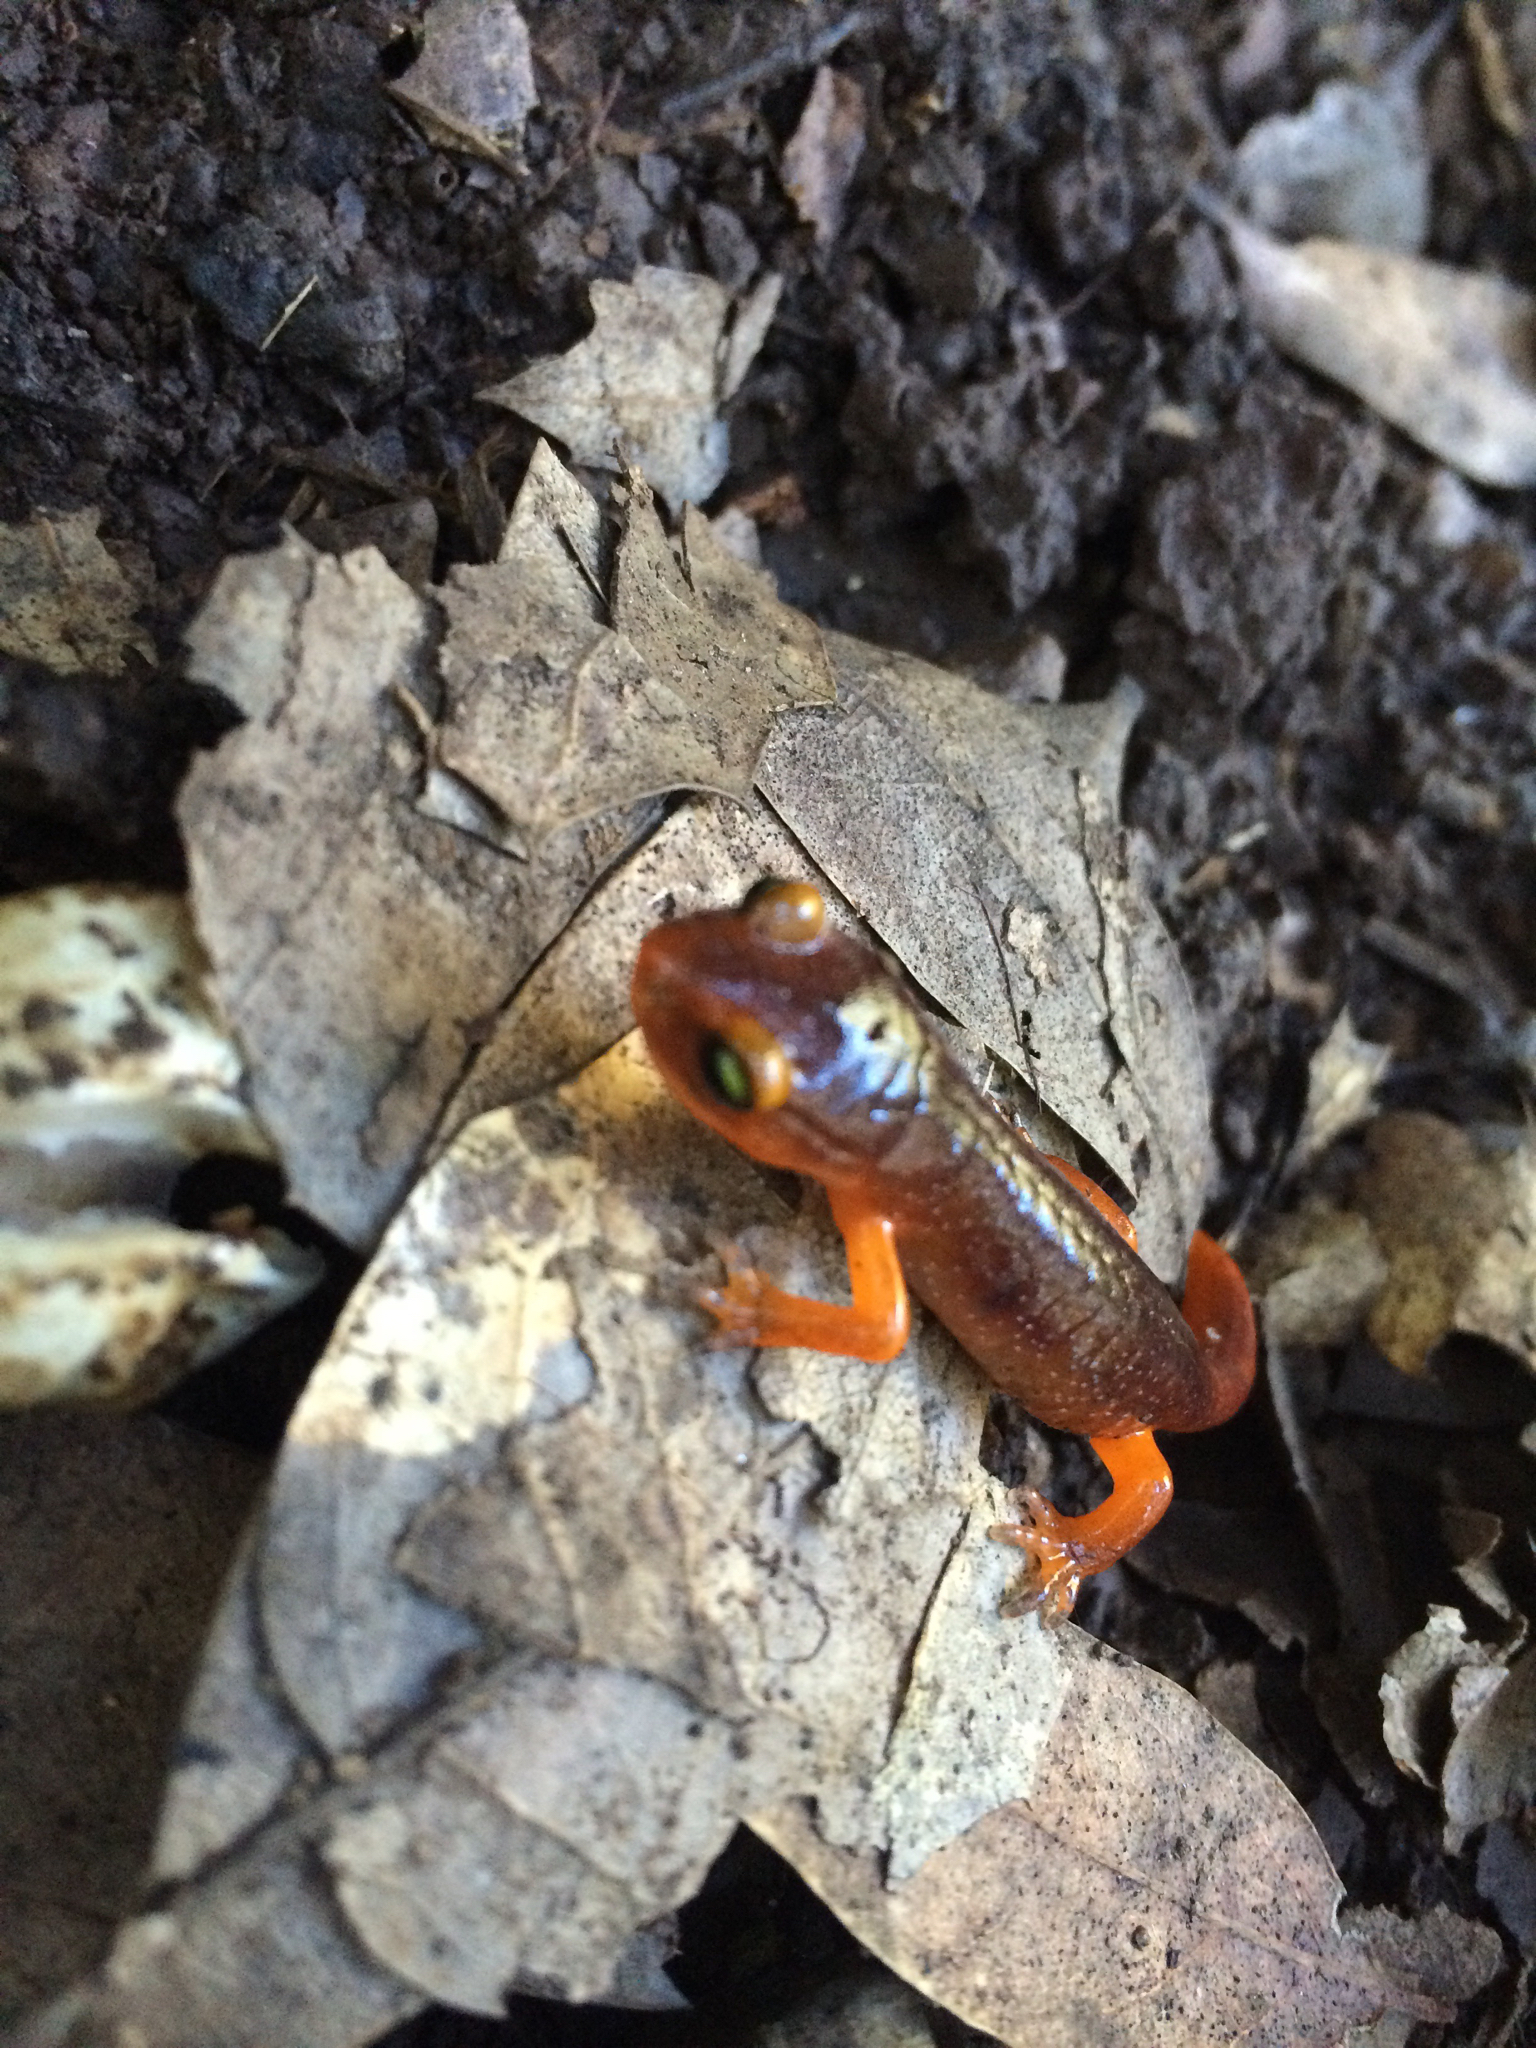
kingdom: Animalia
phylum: Chordata
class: Amphibia
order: Caudata
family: Plethodontidae
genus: Ensatina
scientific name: Ensatina eschscholtzii
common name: Ensatina
